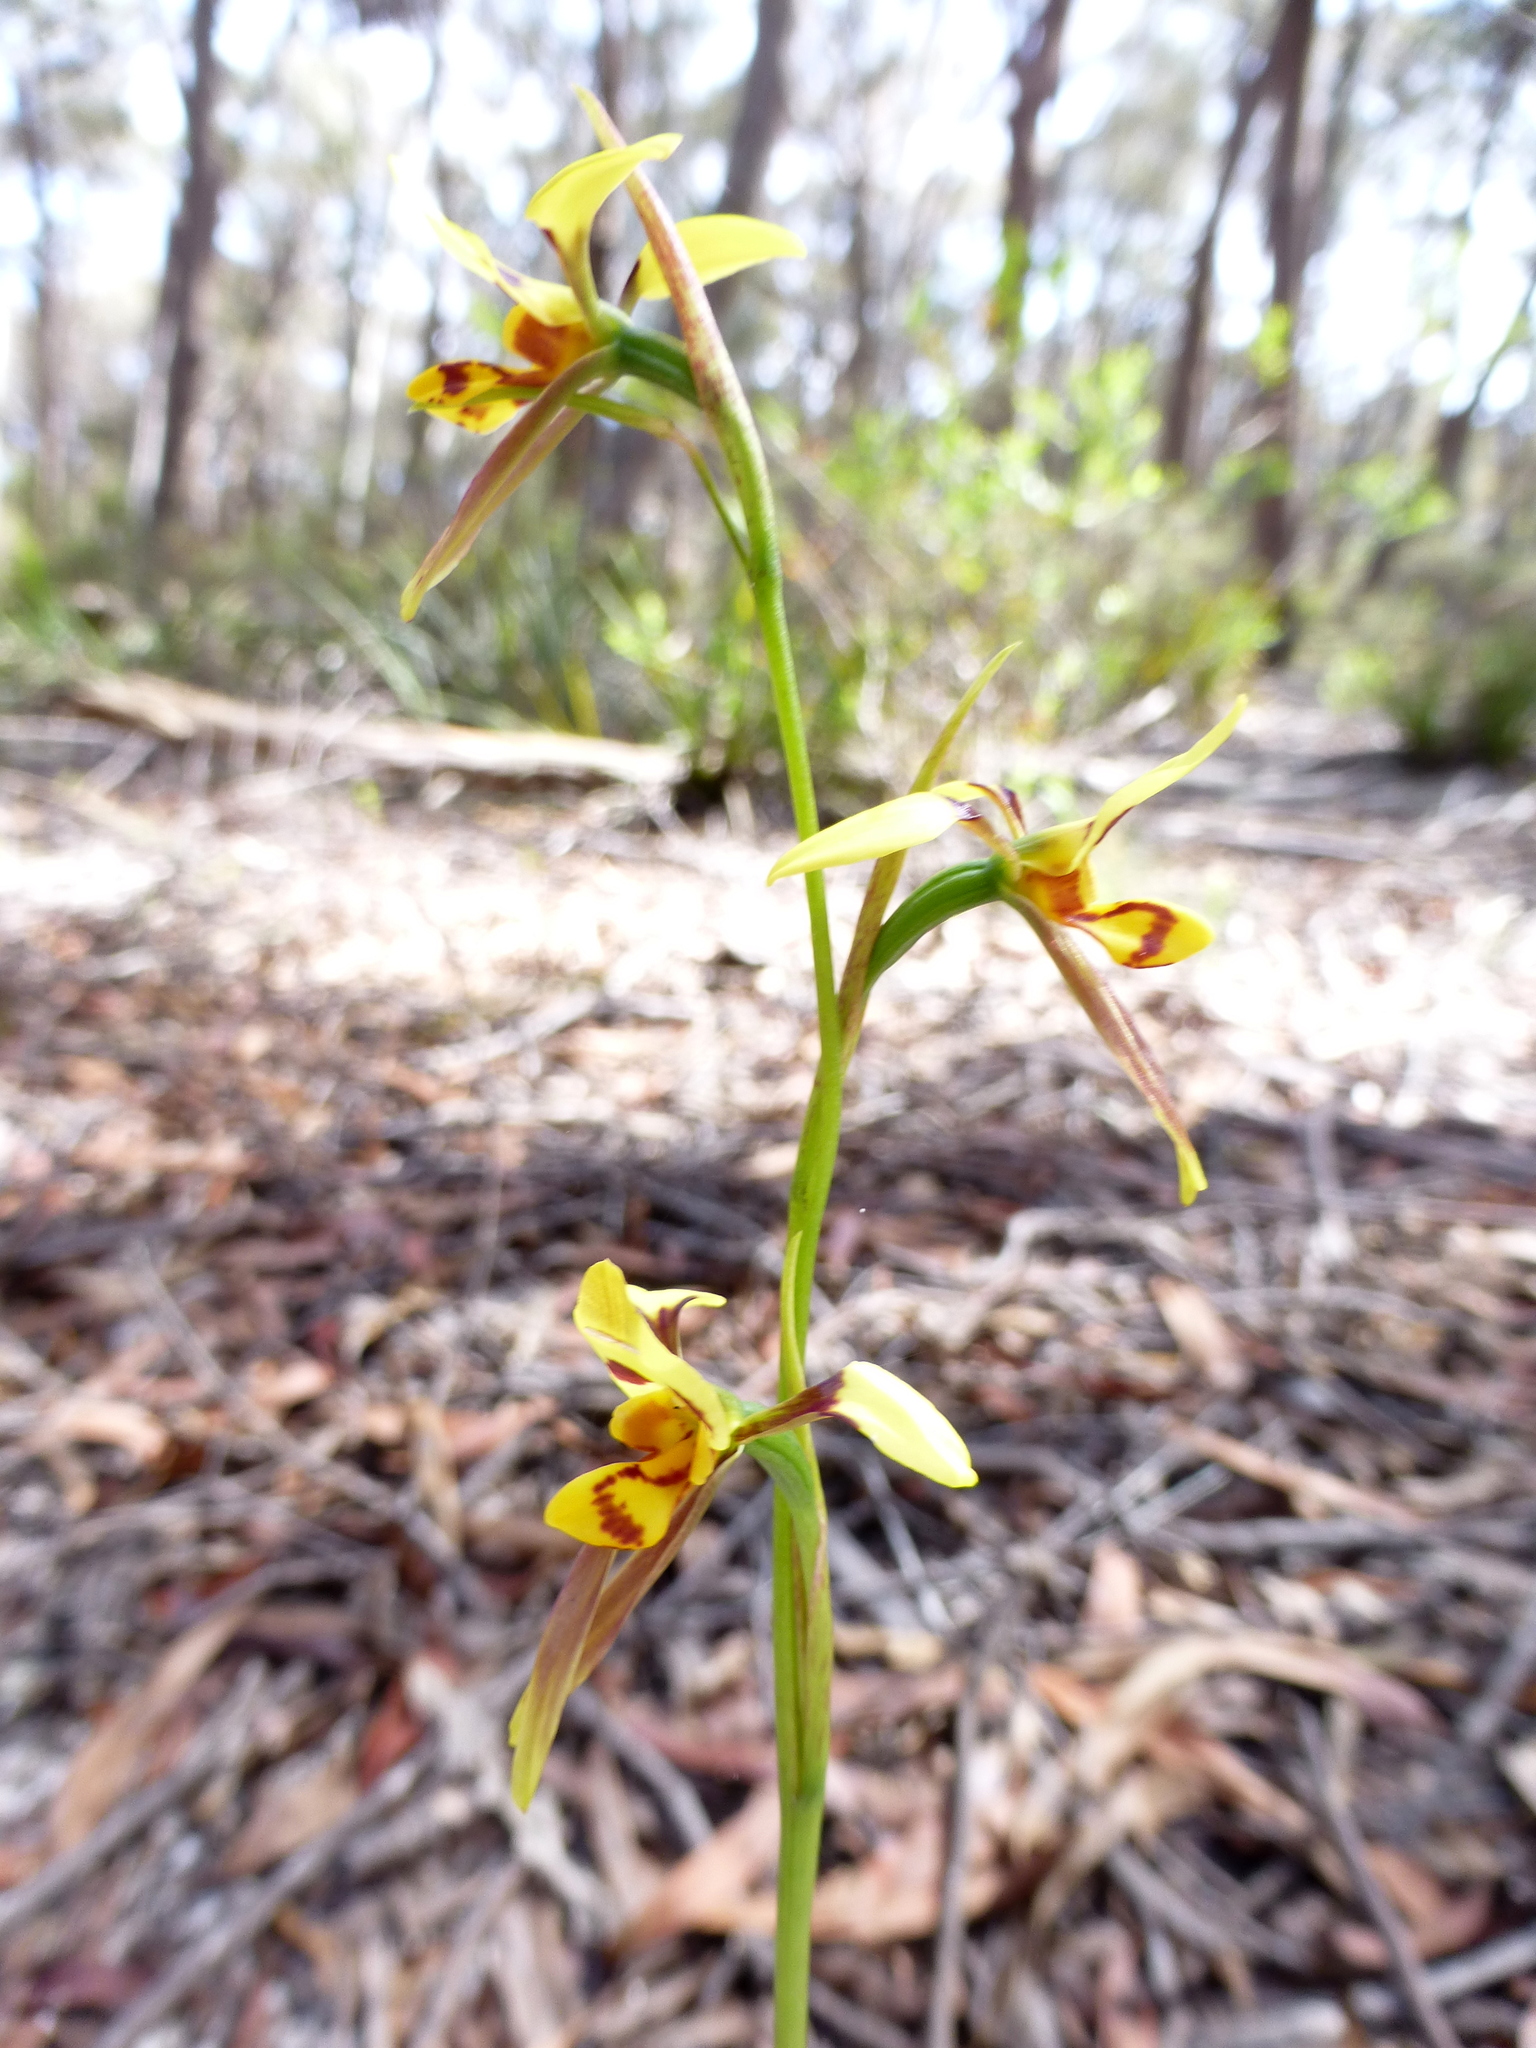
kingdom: Plantae
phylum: Tracheophyta
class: Liliopsida
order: Asparagales
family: Orchidaceae
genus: Diuris
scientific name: Diuris sulphurea
